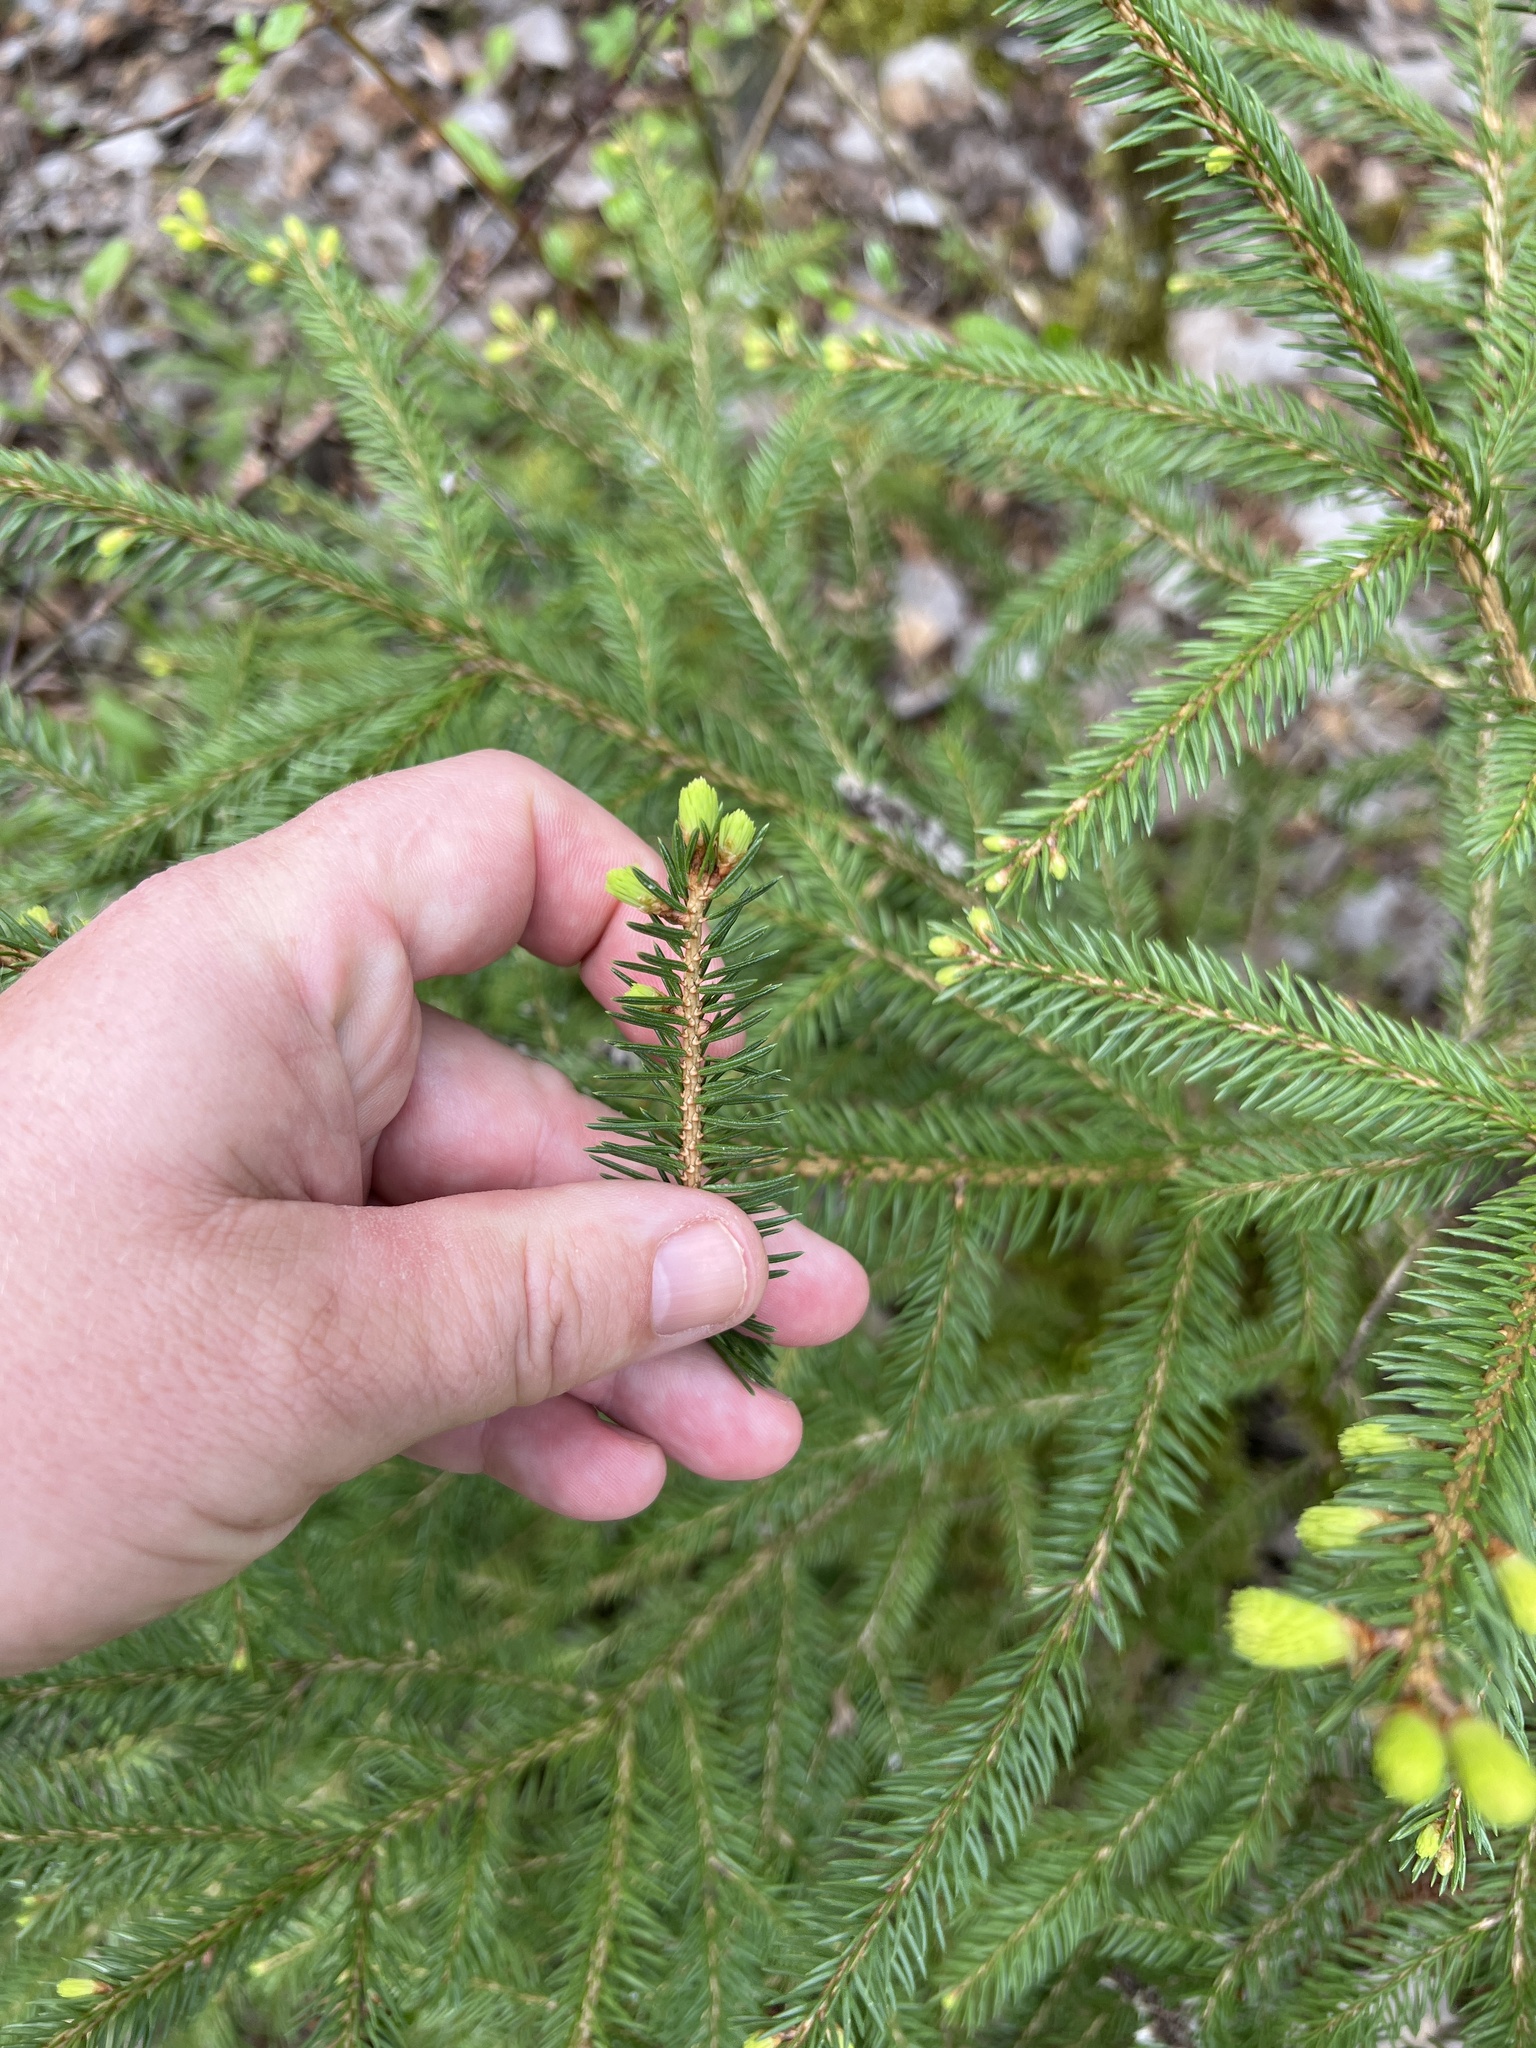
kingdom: Plantae
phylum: Tracheophyta
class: Pinopsida
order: Pinales
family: Pinaceae
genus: Picea
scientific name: Picea abies
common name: Norway spruce
